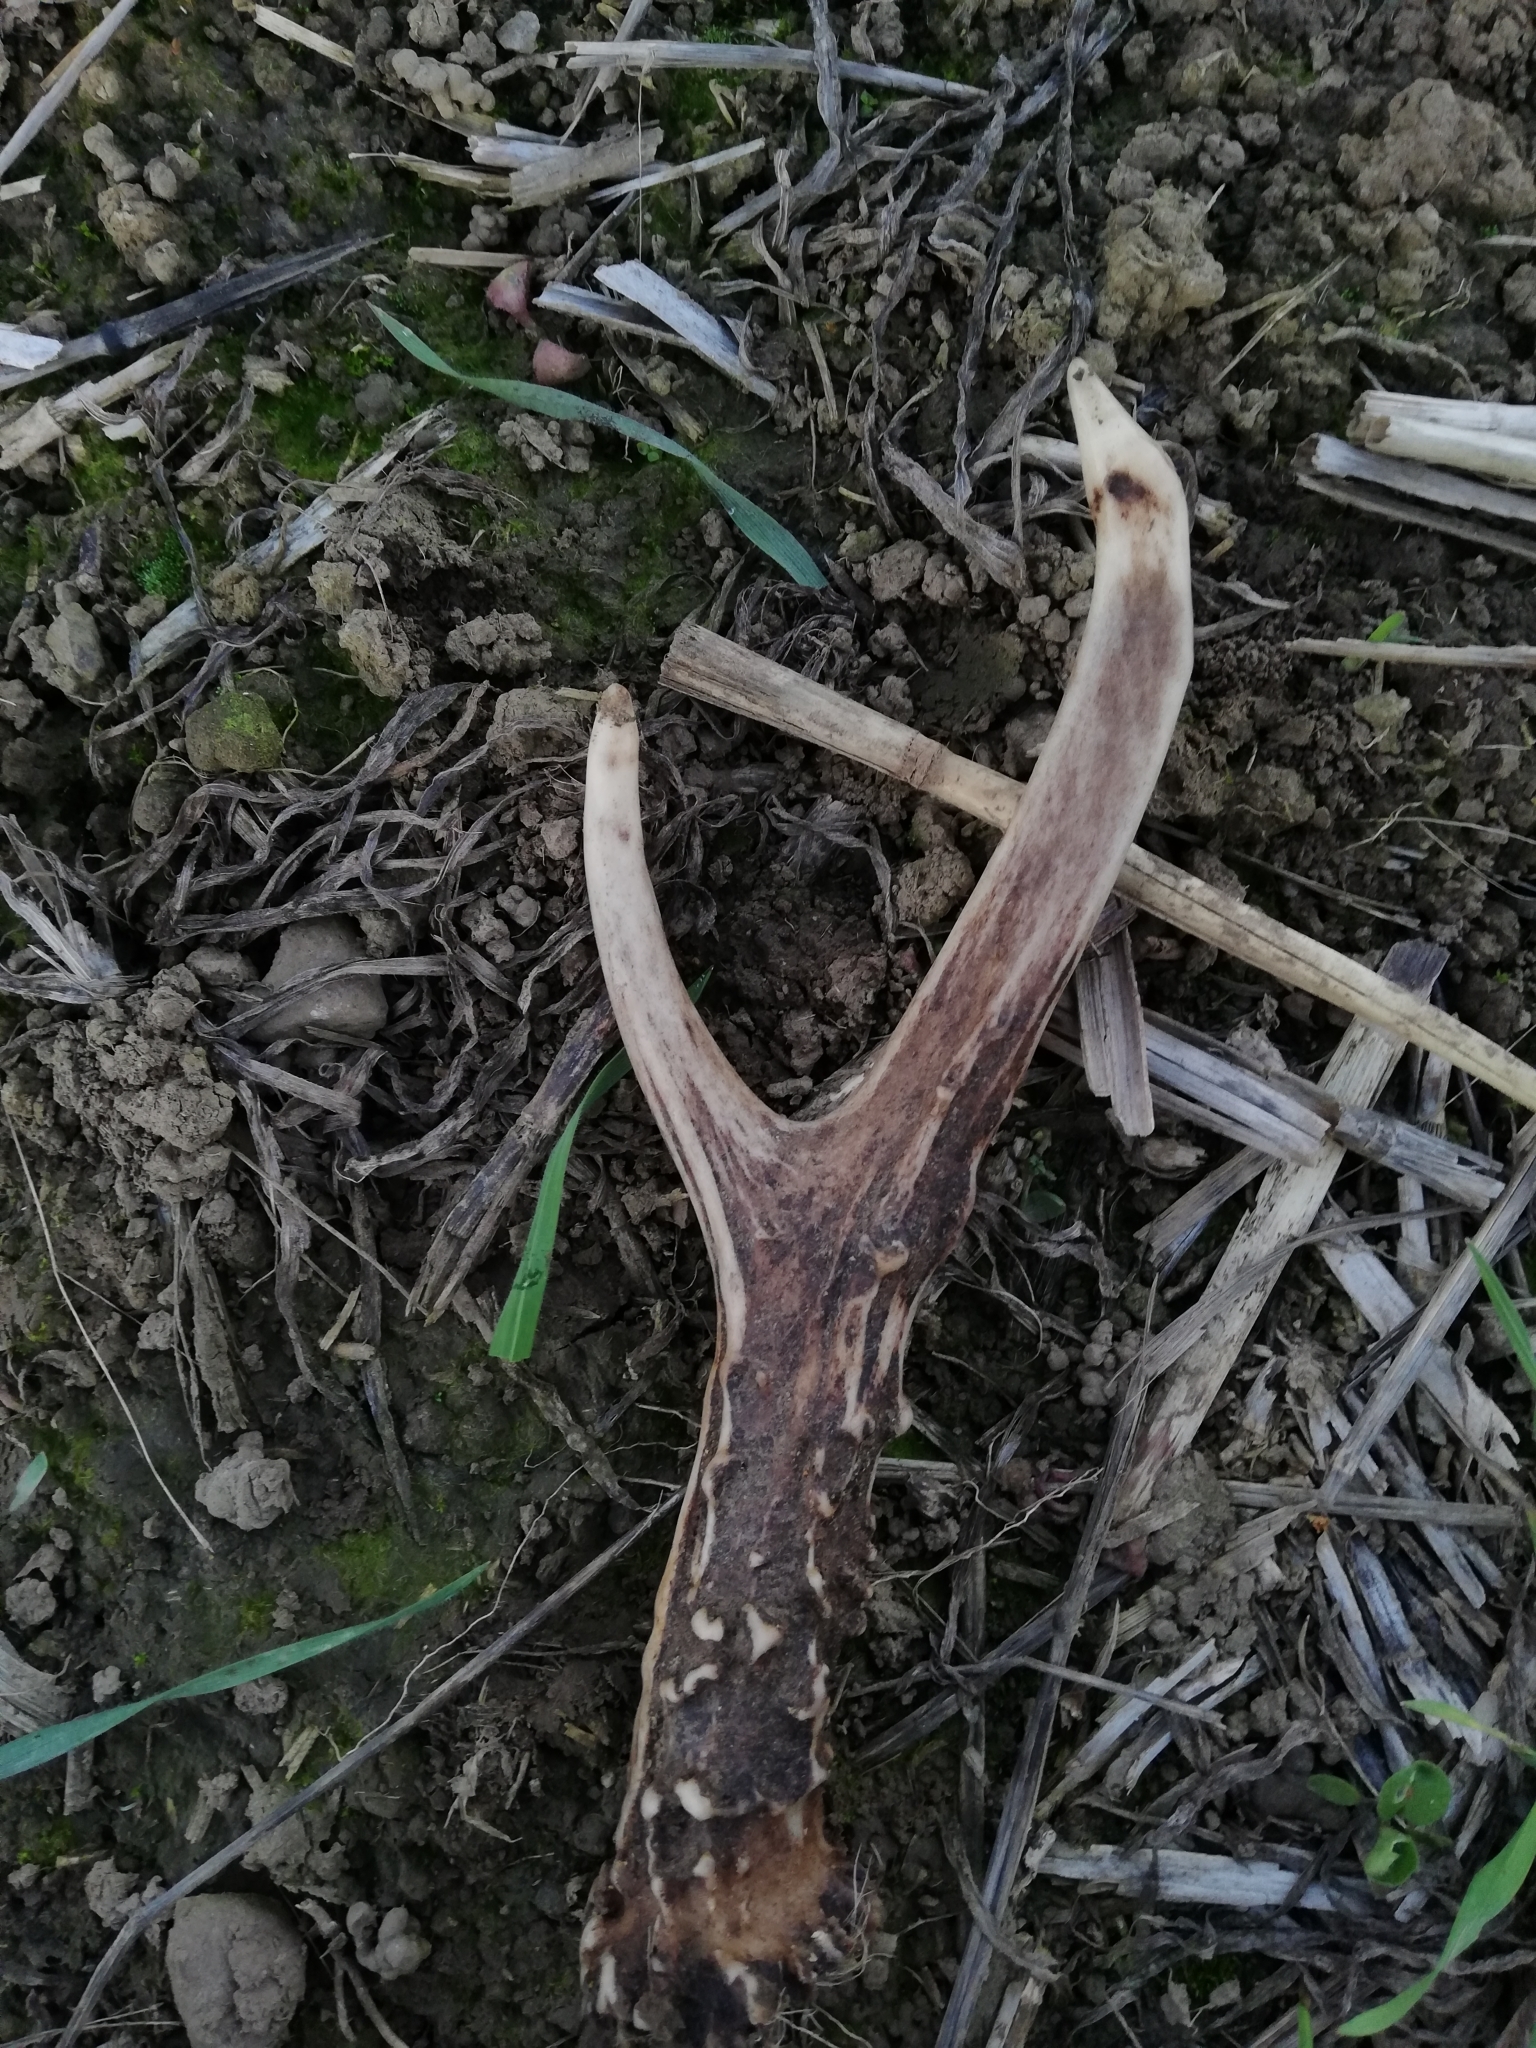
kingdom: Animalia
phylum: Chordata
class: Mammalia
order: Artiodactyla
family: Cervidae
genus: Capreolus
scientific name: Capreolus capreolus
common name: Western roe deer
